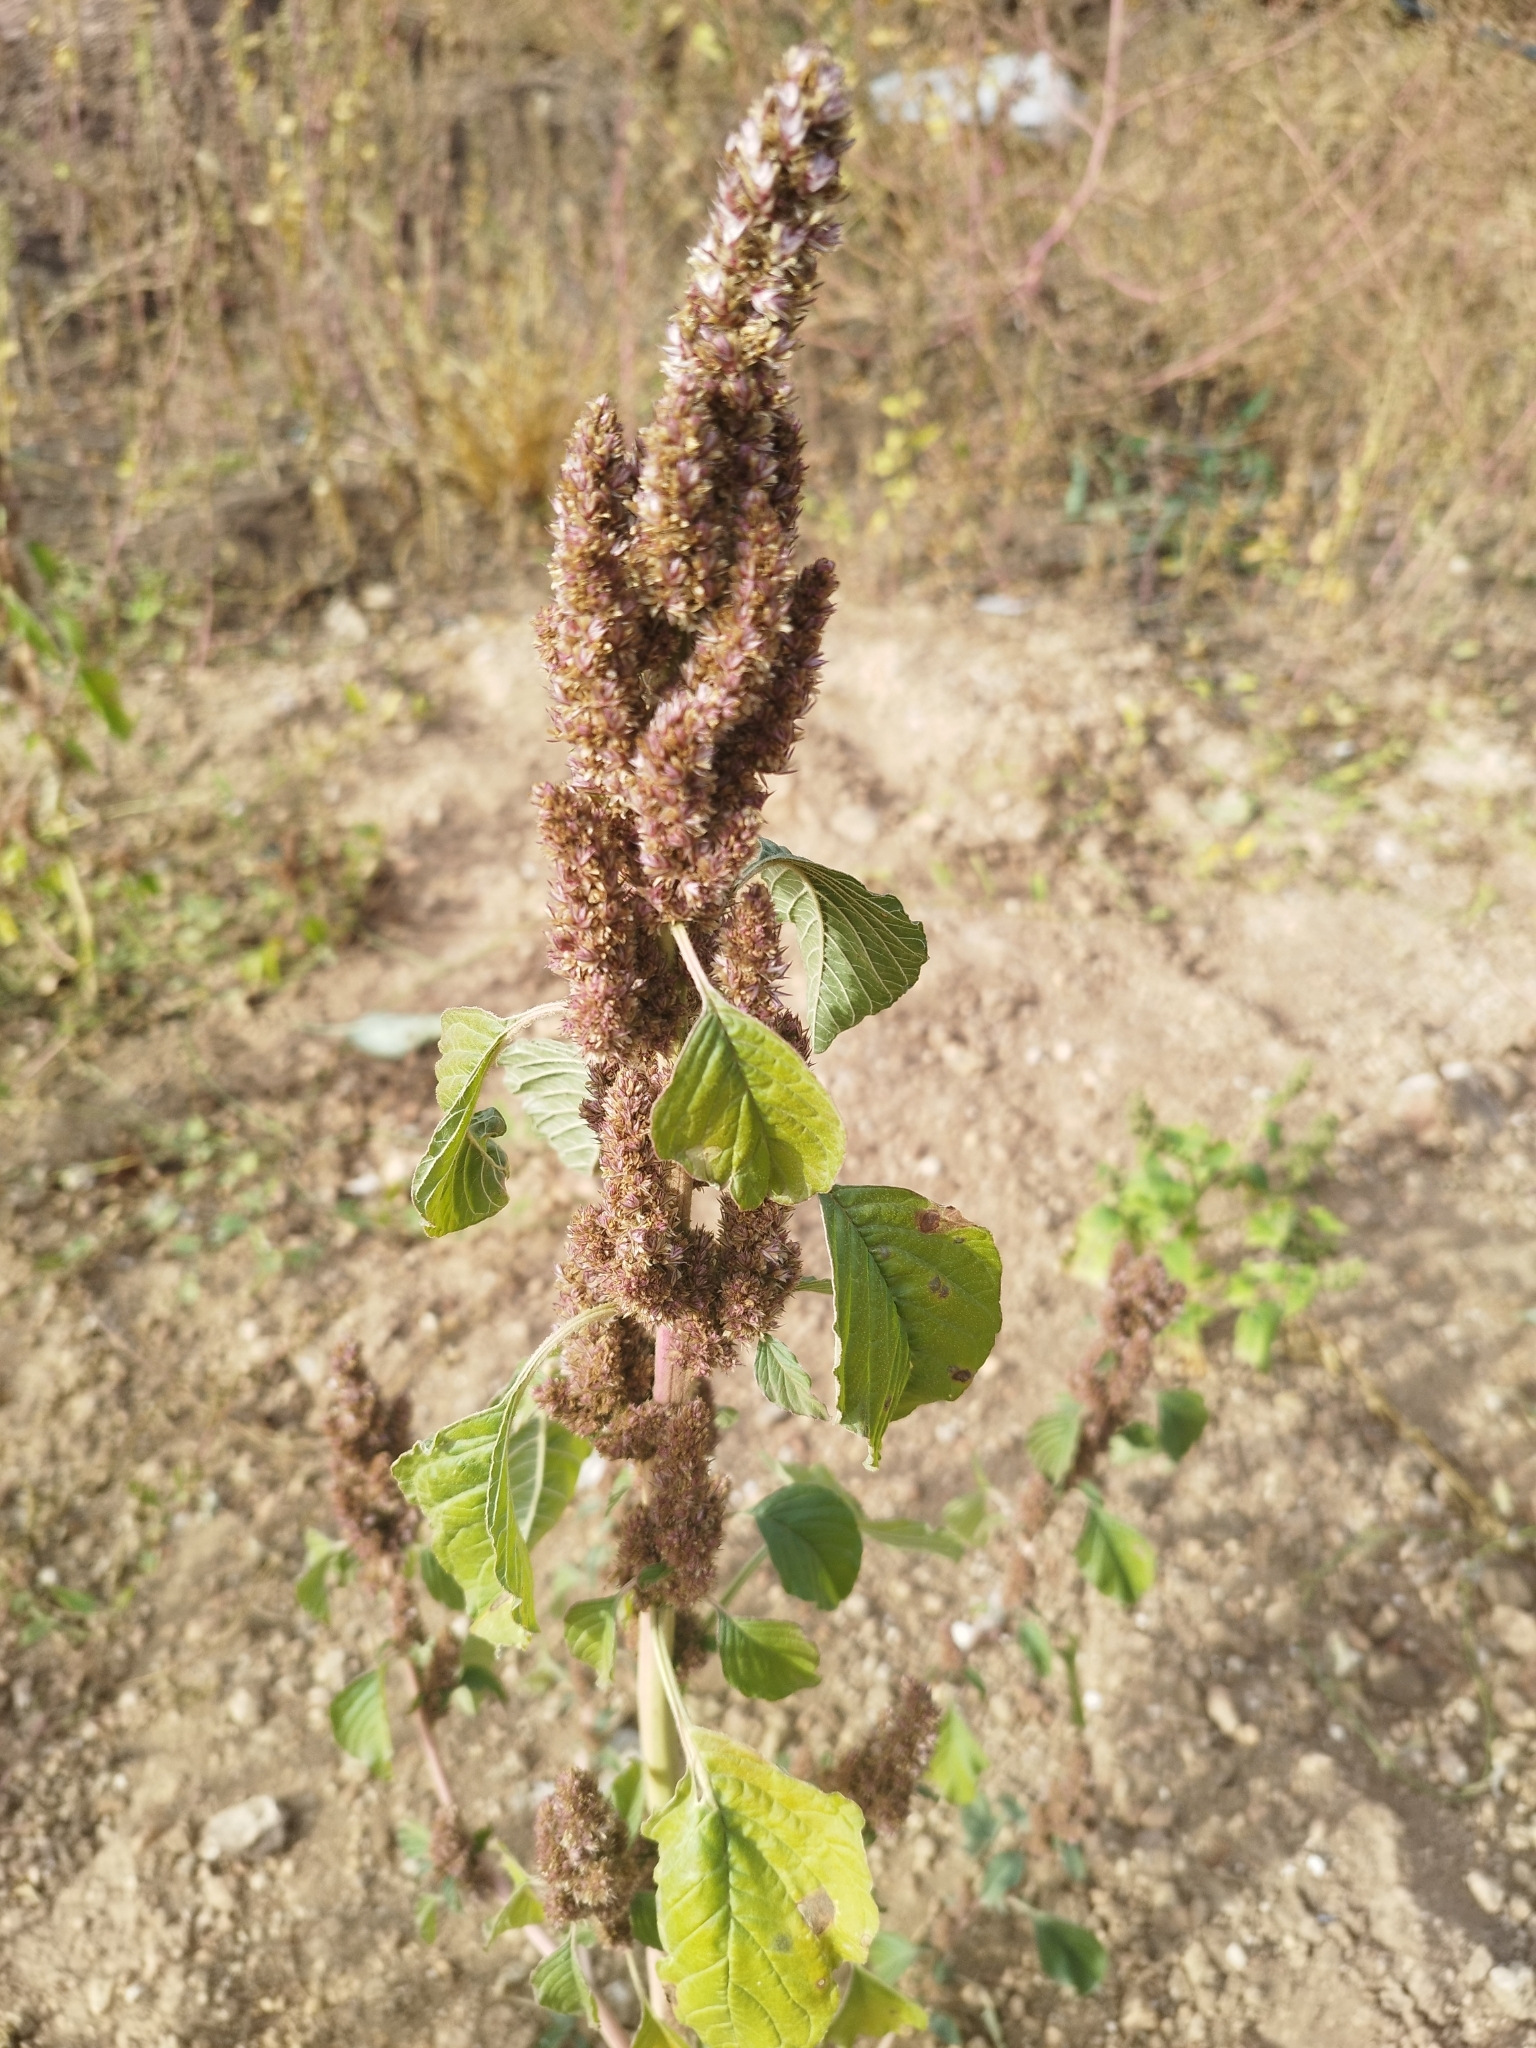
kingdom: Plantae
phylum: Tracheophyta
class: Magnoliopsida
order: Caryophyllales
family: Amaranthaceae
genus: Amaranthus
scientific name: Amaranthus retroflexus
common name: Redroot amaranth
